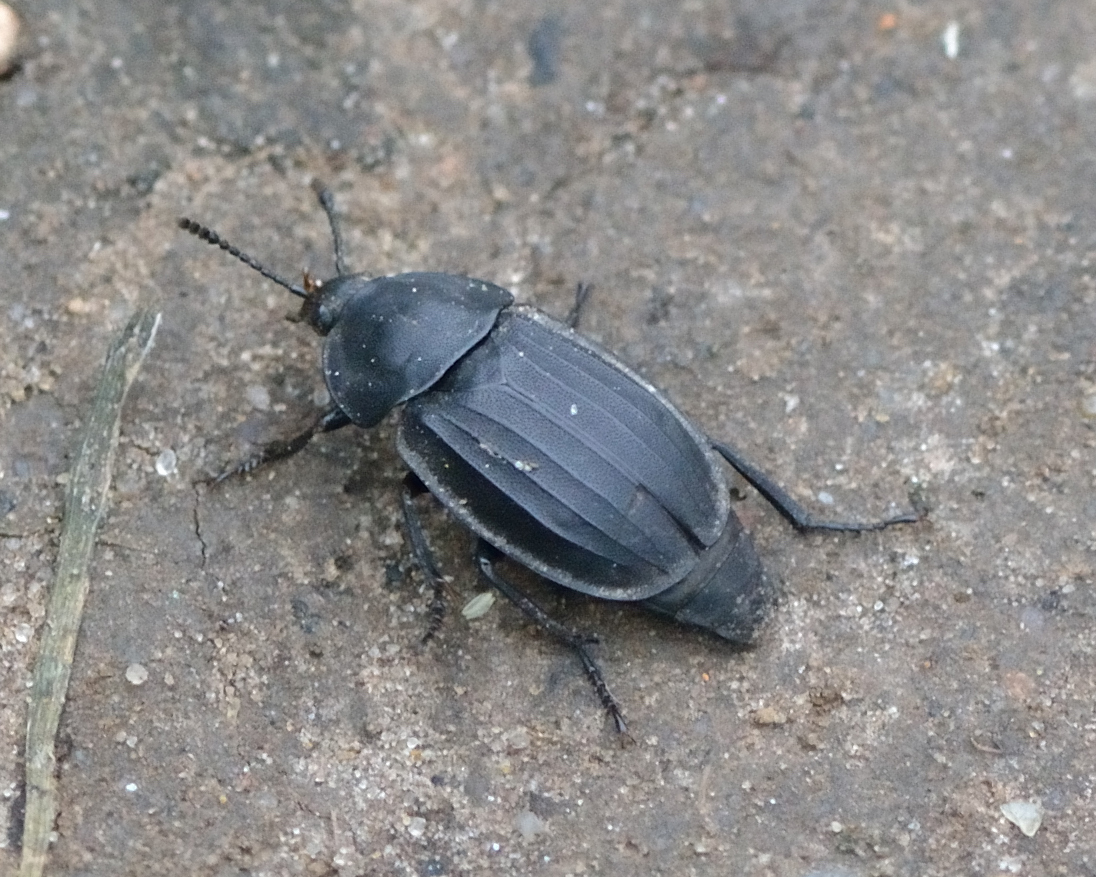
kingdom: Animalia
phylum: Arthropoda
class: Insecta
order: Coleoptera
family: Staphylinidae
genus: Silpha
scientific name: Silpha tristis
